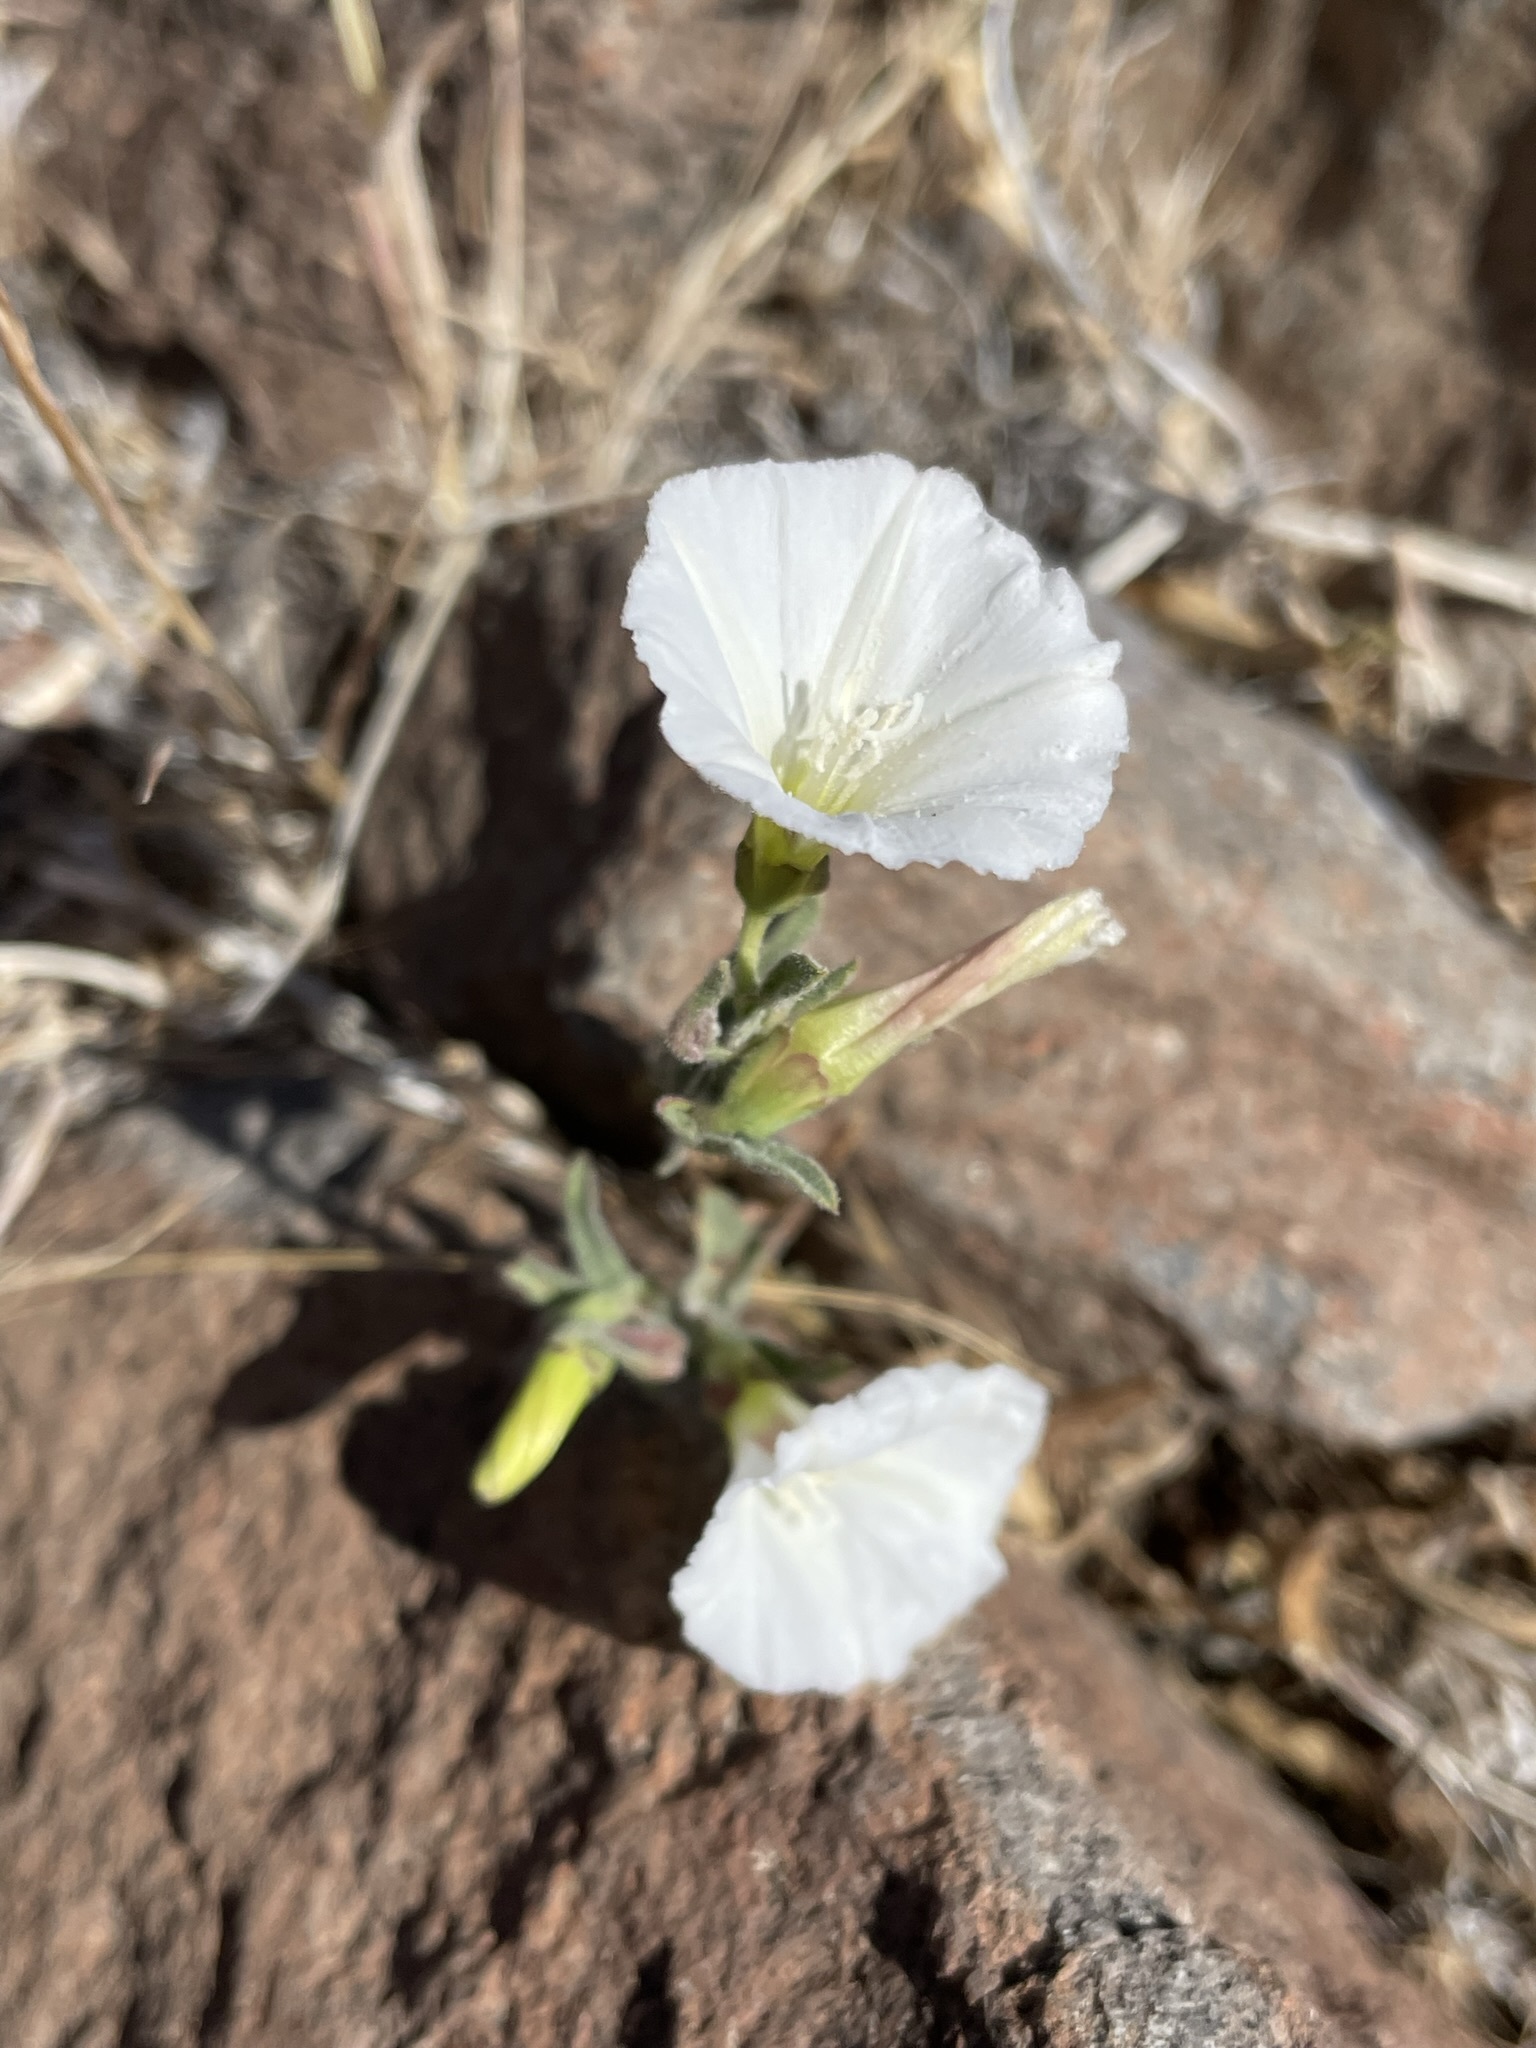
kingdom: Plantae
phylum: Tracheophyta
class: Magnoliopsida
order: Solanales
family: Convolvulaceae
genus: Convolvulus
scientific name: Convolvulus arvensis
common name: Field bindweed
